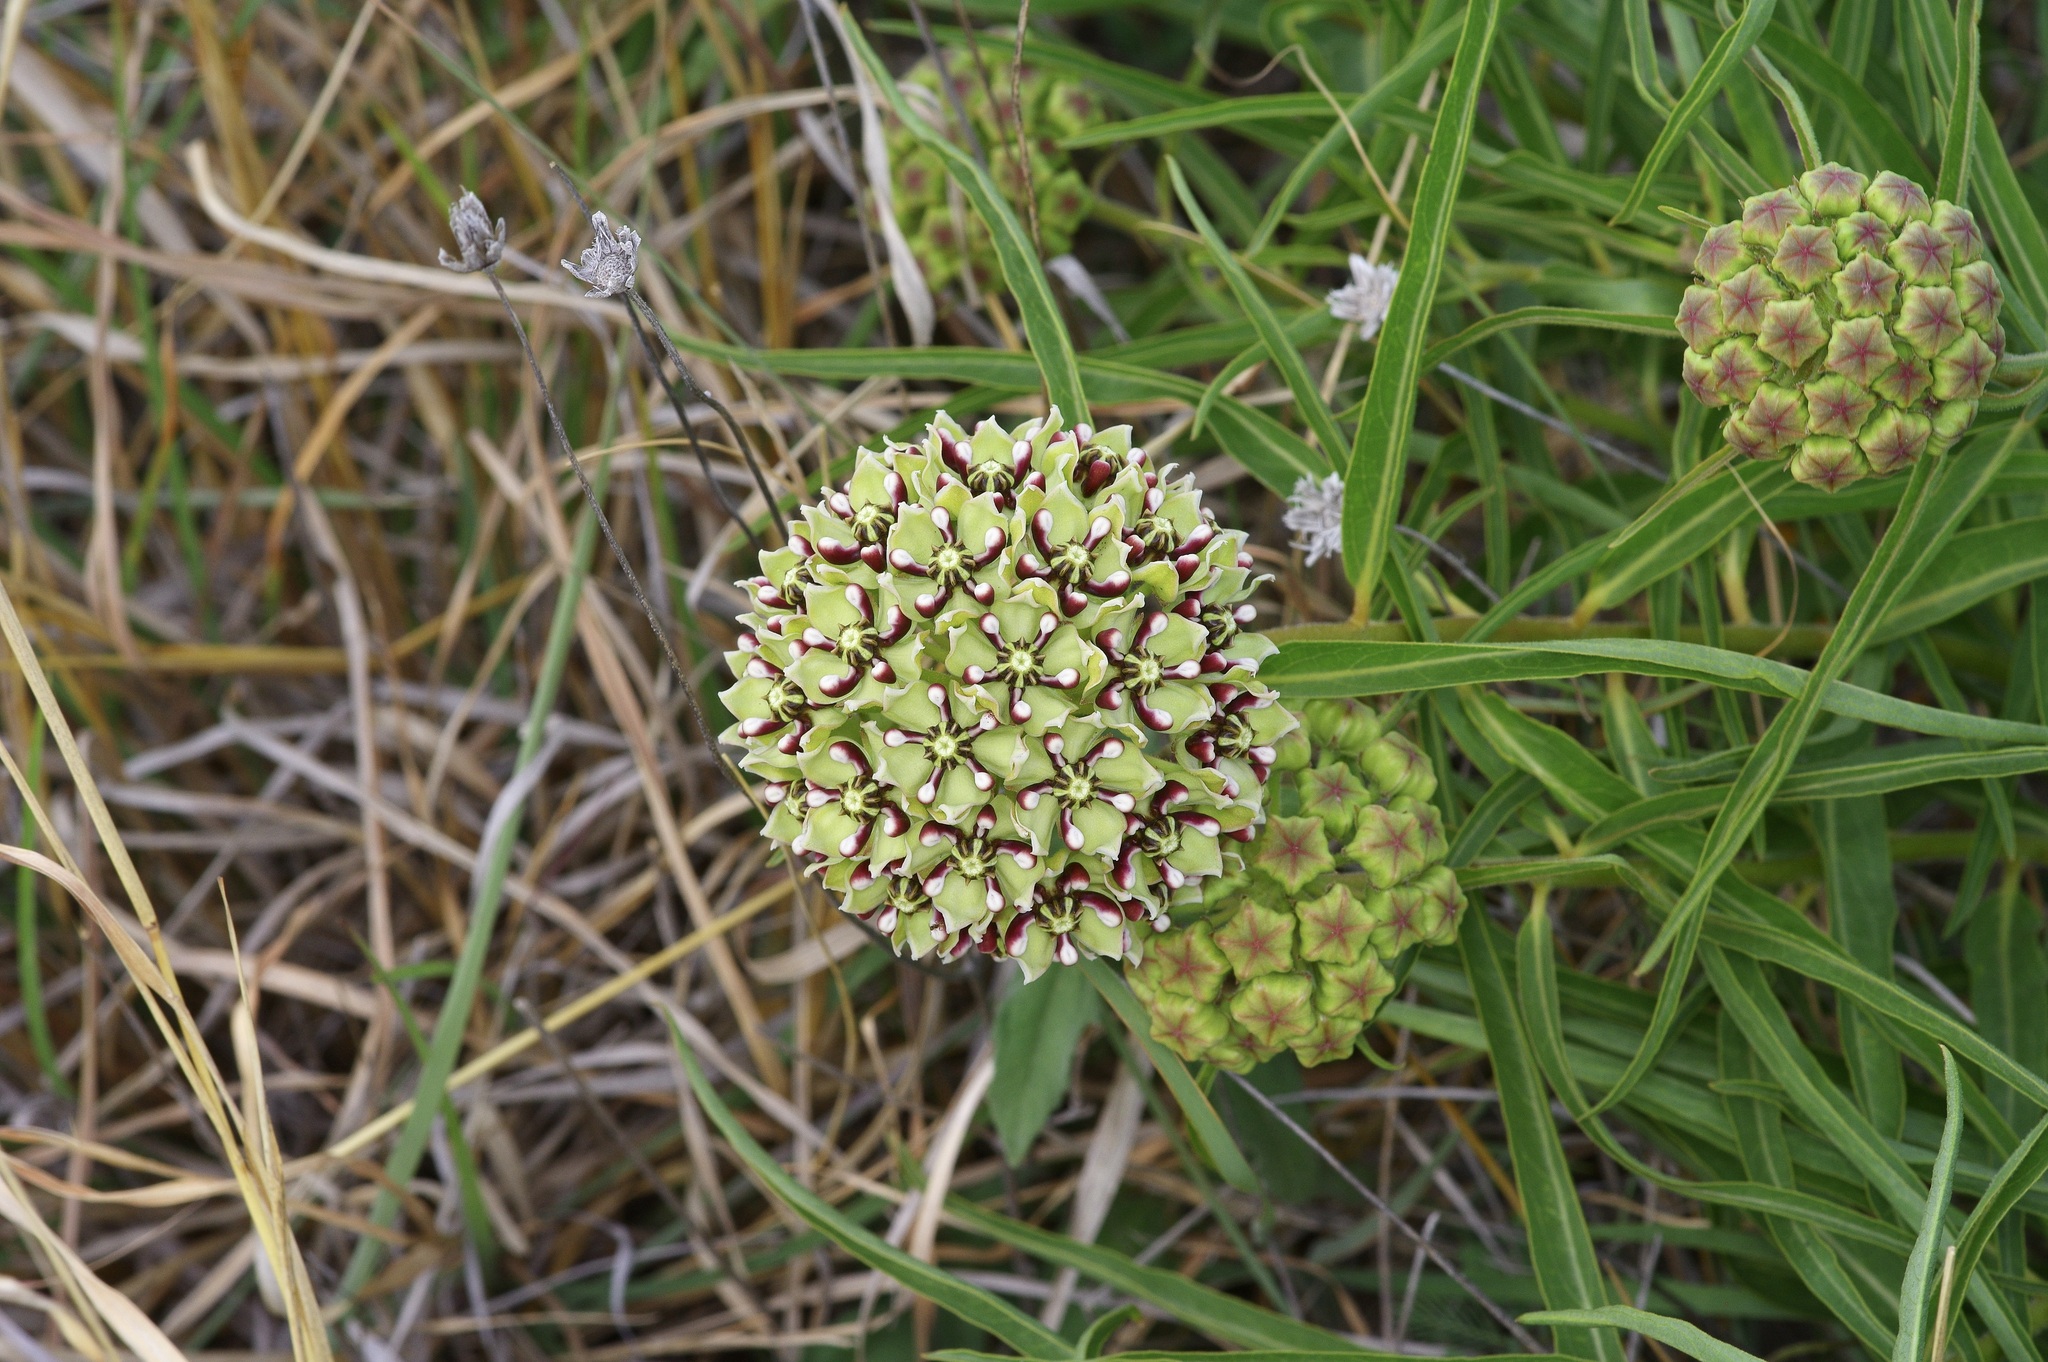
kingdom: Plantae
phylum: Tracheophyta
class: Magnoliopsida
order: Gentianales
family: Apocynaceae
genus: Asclepias
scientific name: Asclepias asperula
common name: Antelope horns
